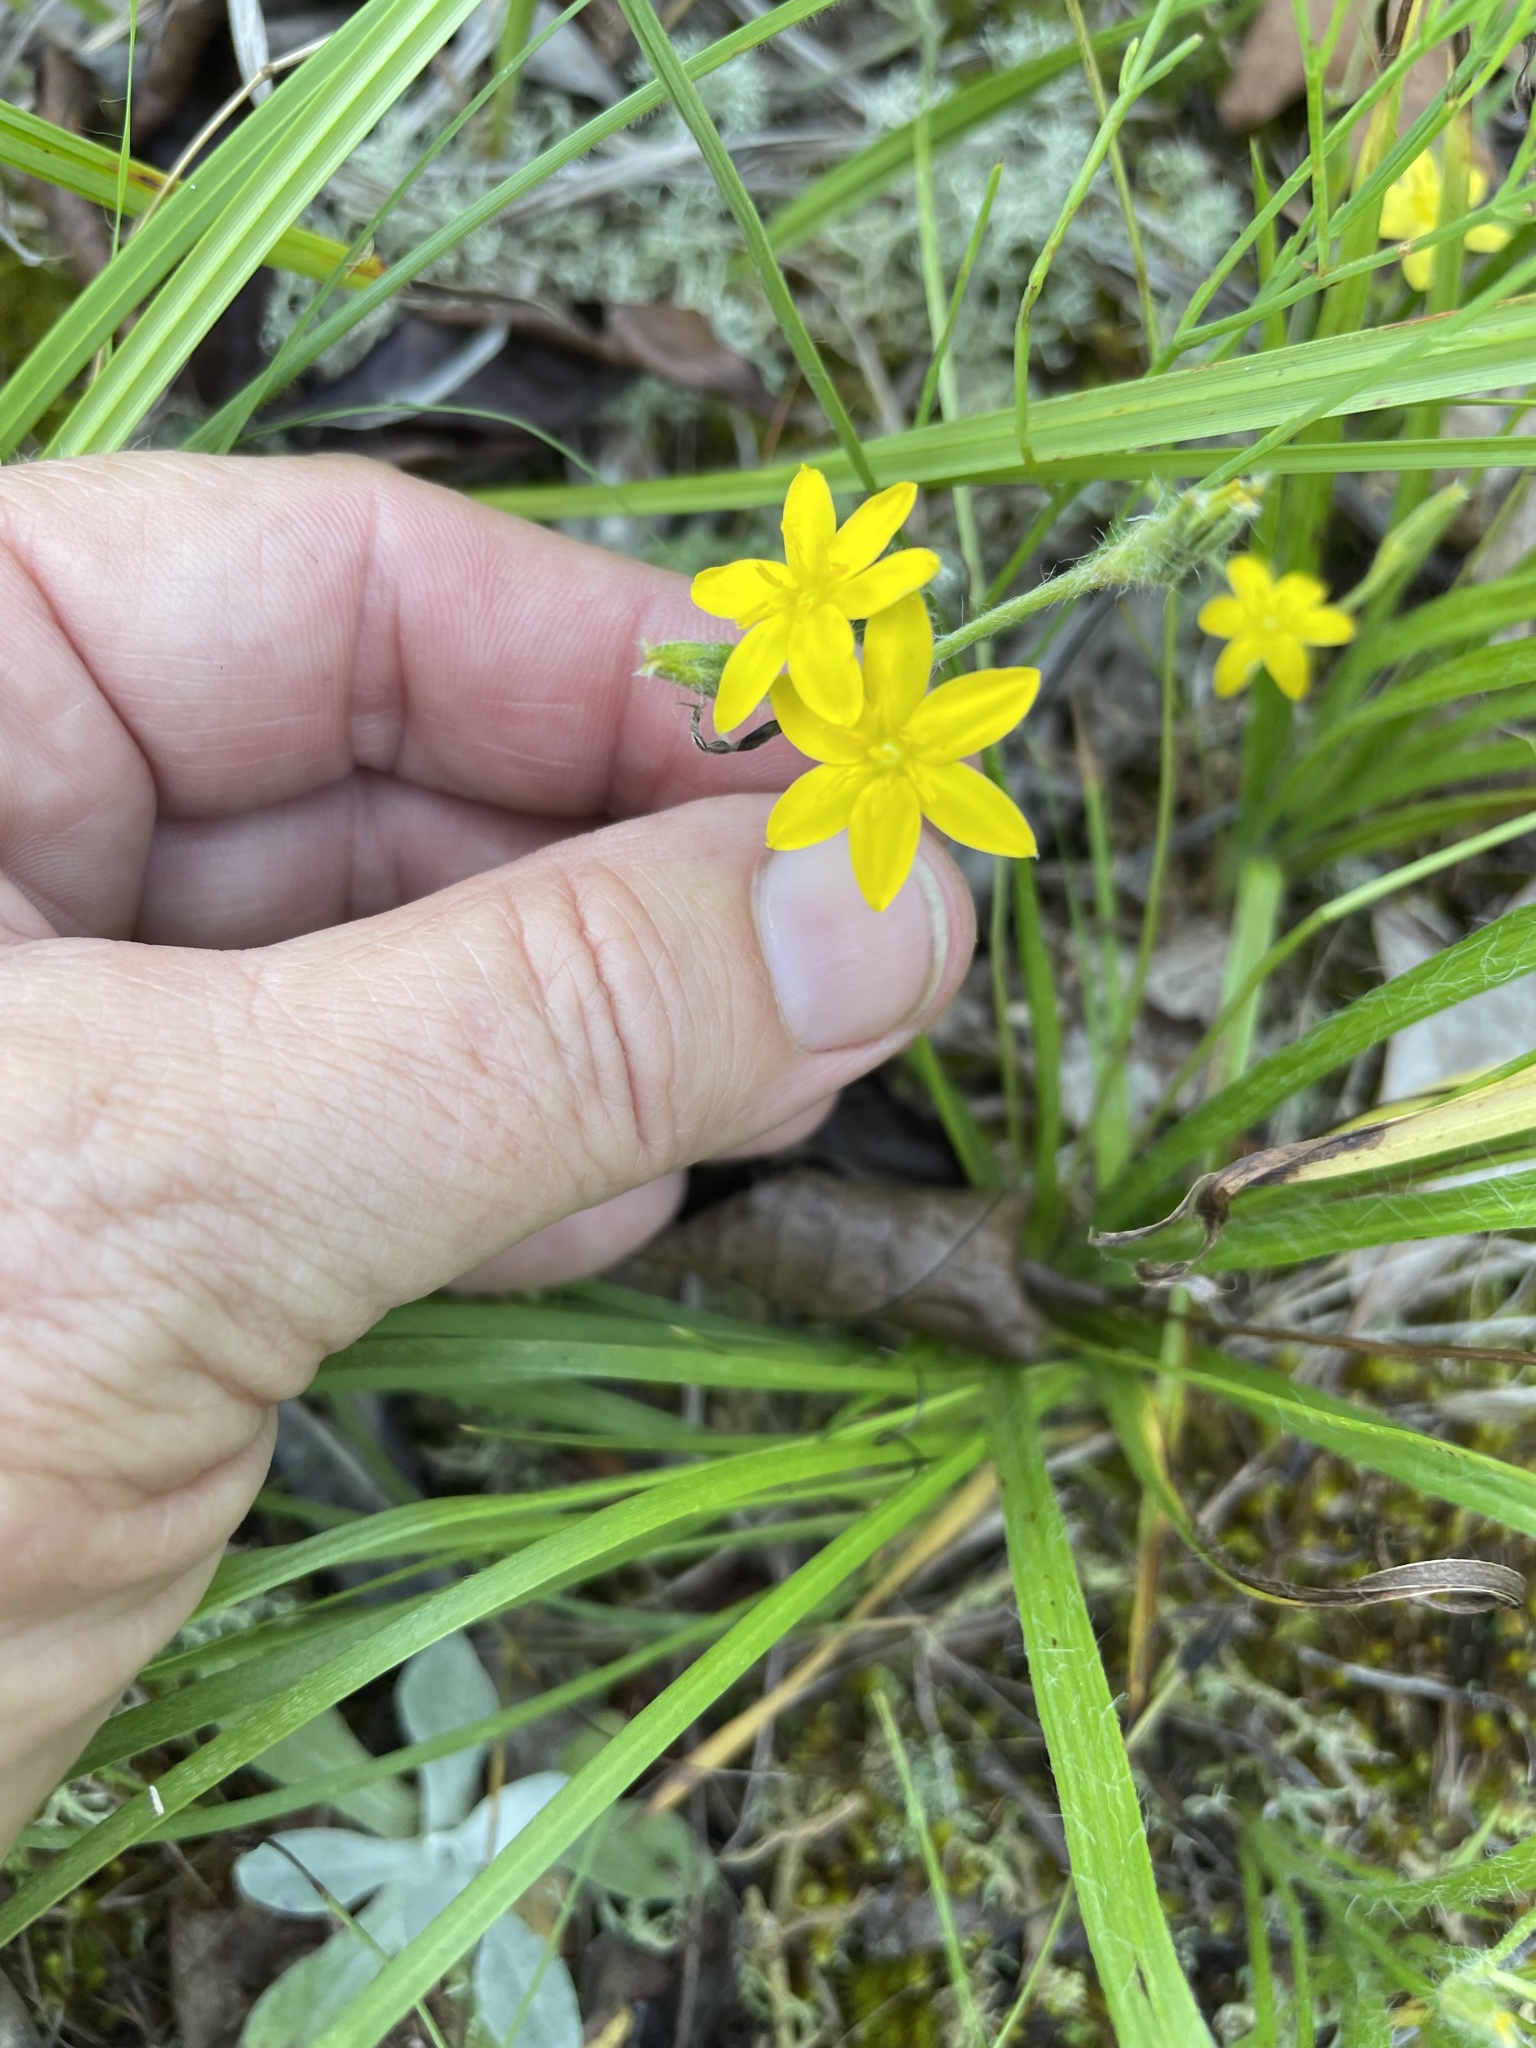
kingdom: Plantae
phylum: Tracheophyta
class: Liliopsida
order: Asparagales
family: Hypoxidaceae
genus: Hypoxis
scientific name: Hypoxis hirsuta
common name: Common goldstar
